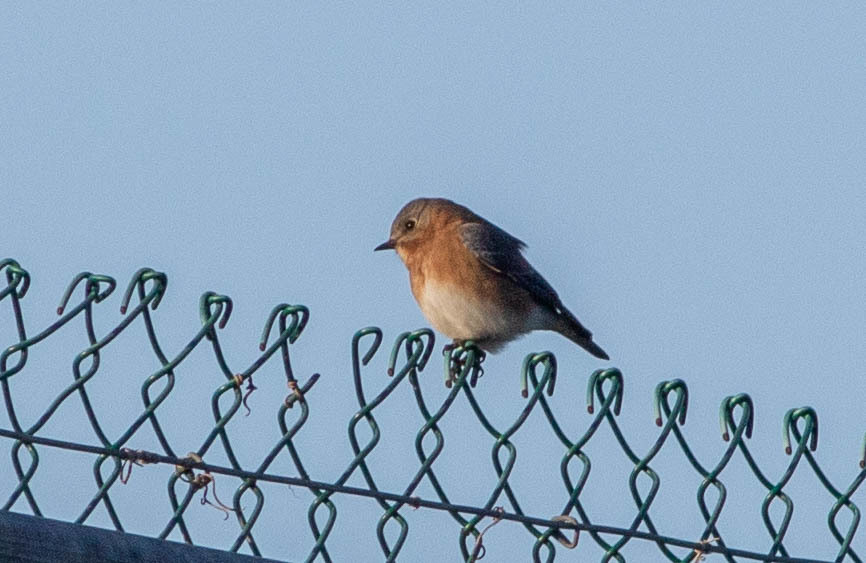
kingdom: Animalia
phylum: Chordata
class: Aves
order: Passeriformes
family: Turdidae
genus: Sialia
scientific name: Sialia sialis
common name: Eastern bluebird
